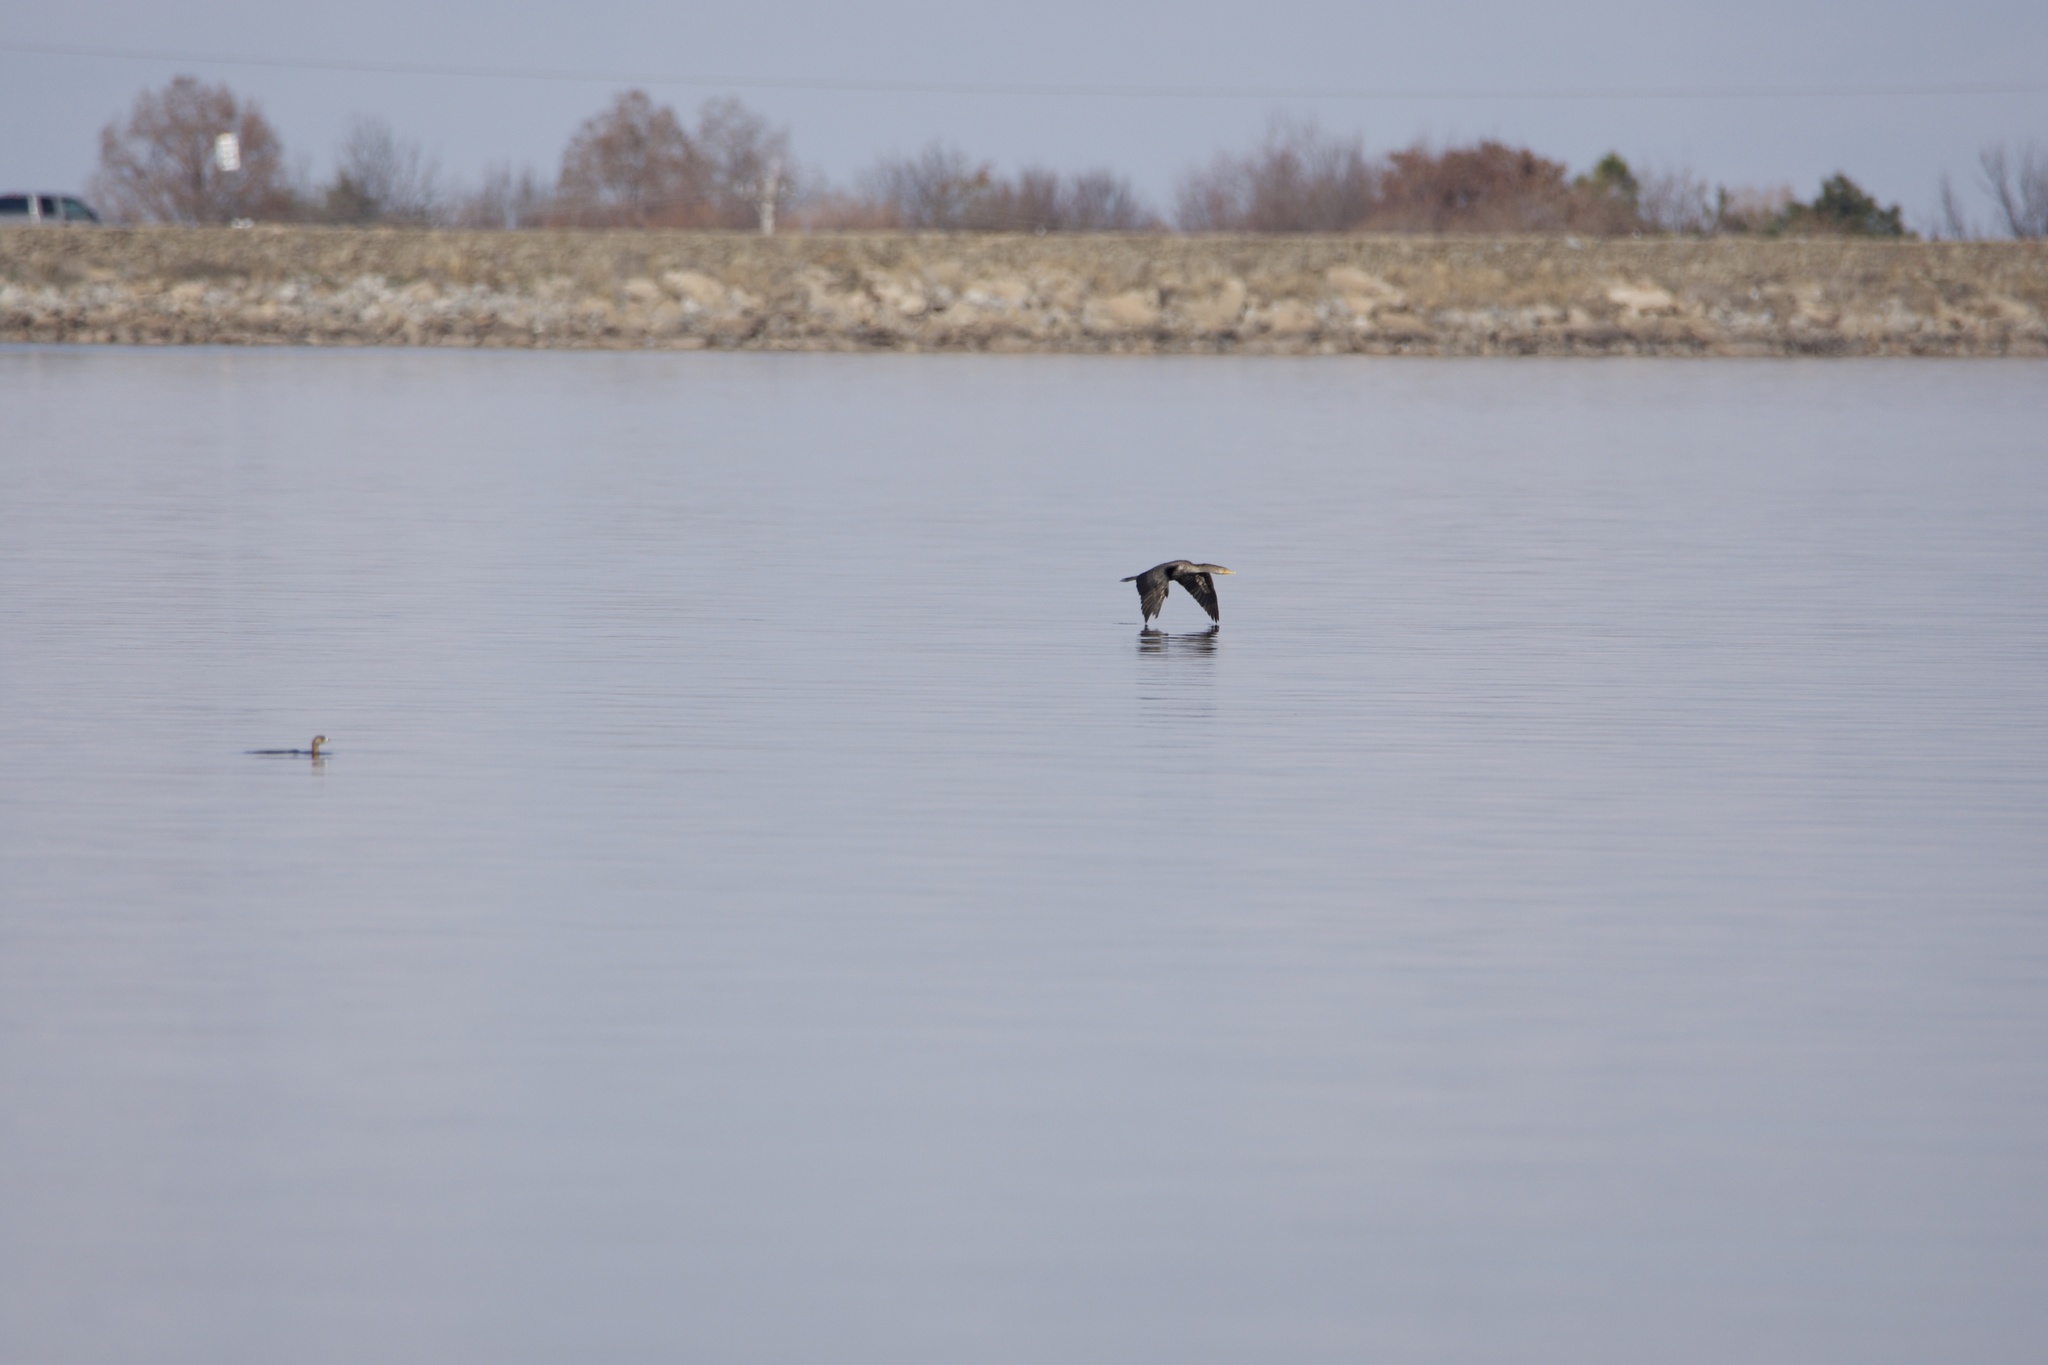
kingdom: Animalia
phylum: Chordata
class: Aves
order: Suliformes
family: Phalacrocoracidae
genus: Phalacrocorax
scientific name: Phalacrocorax auritus
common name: Double-crested cormorant
